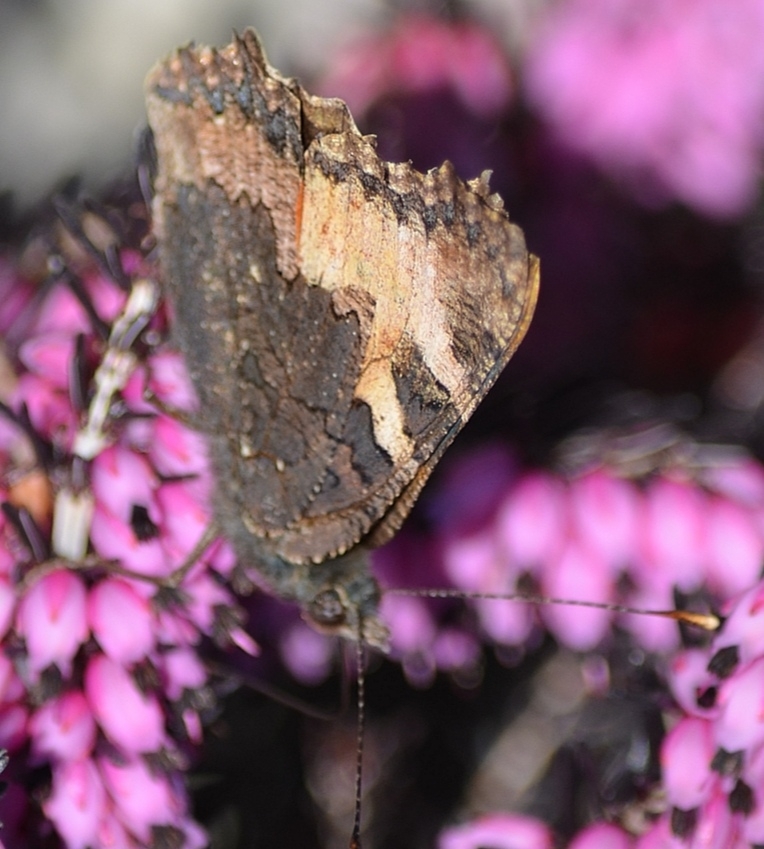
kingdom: Animalia
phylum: Arthropoda
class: Insecta
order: Lepidoptera
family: Nymphalidae
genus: Aglais
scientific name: Aglais urticae
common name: Small tortoiseshell
